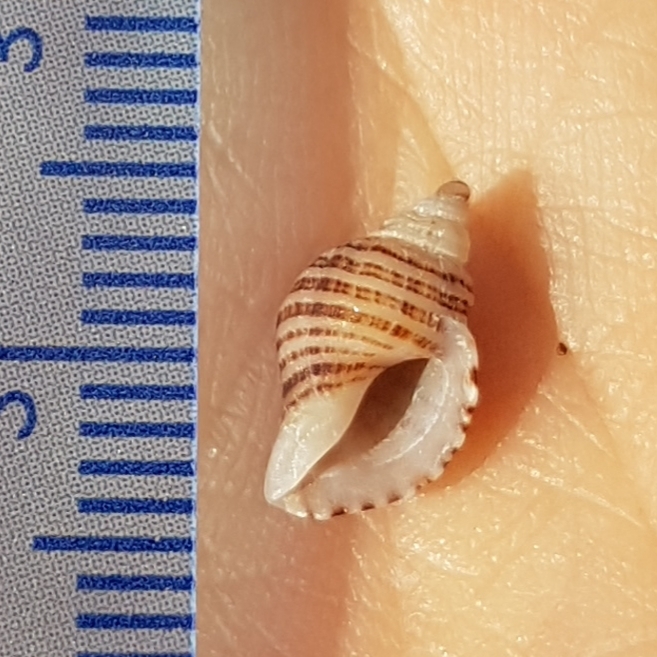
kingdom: Animalia
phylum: Mollusca
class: Gastropoda
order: Neogastropoda
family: Muricidae
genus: Nucella
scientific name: Nucella lapillus
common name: Dog whelk
